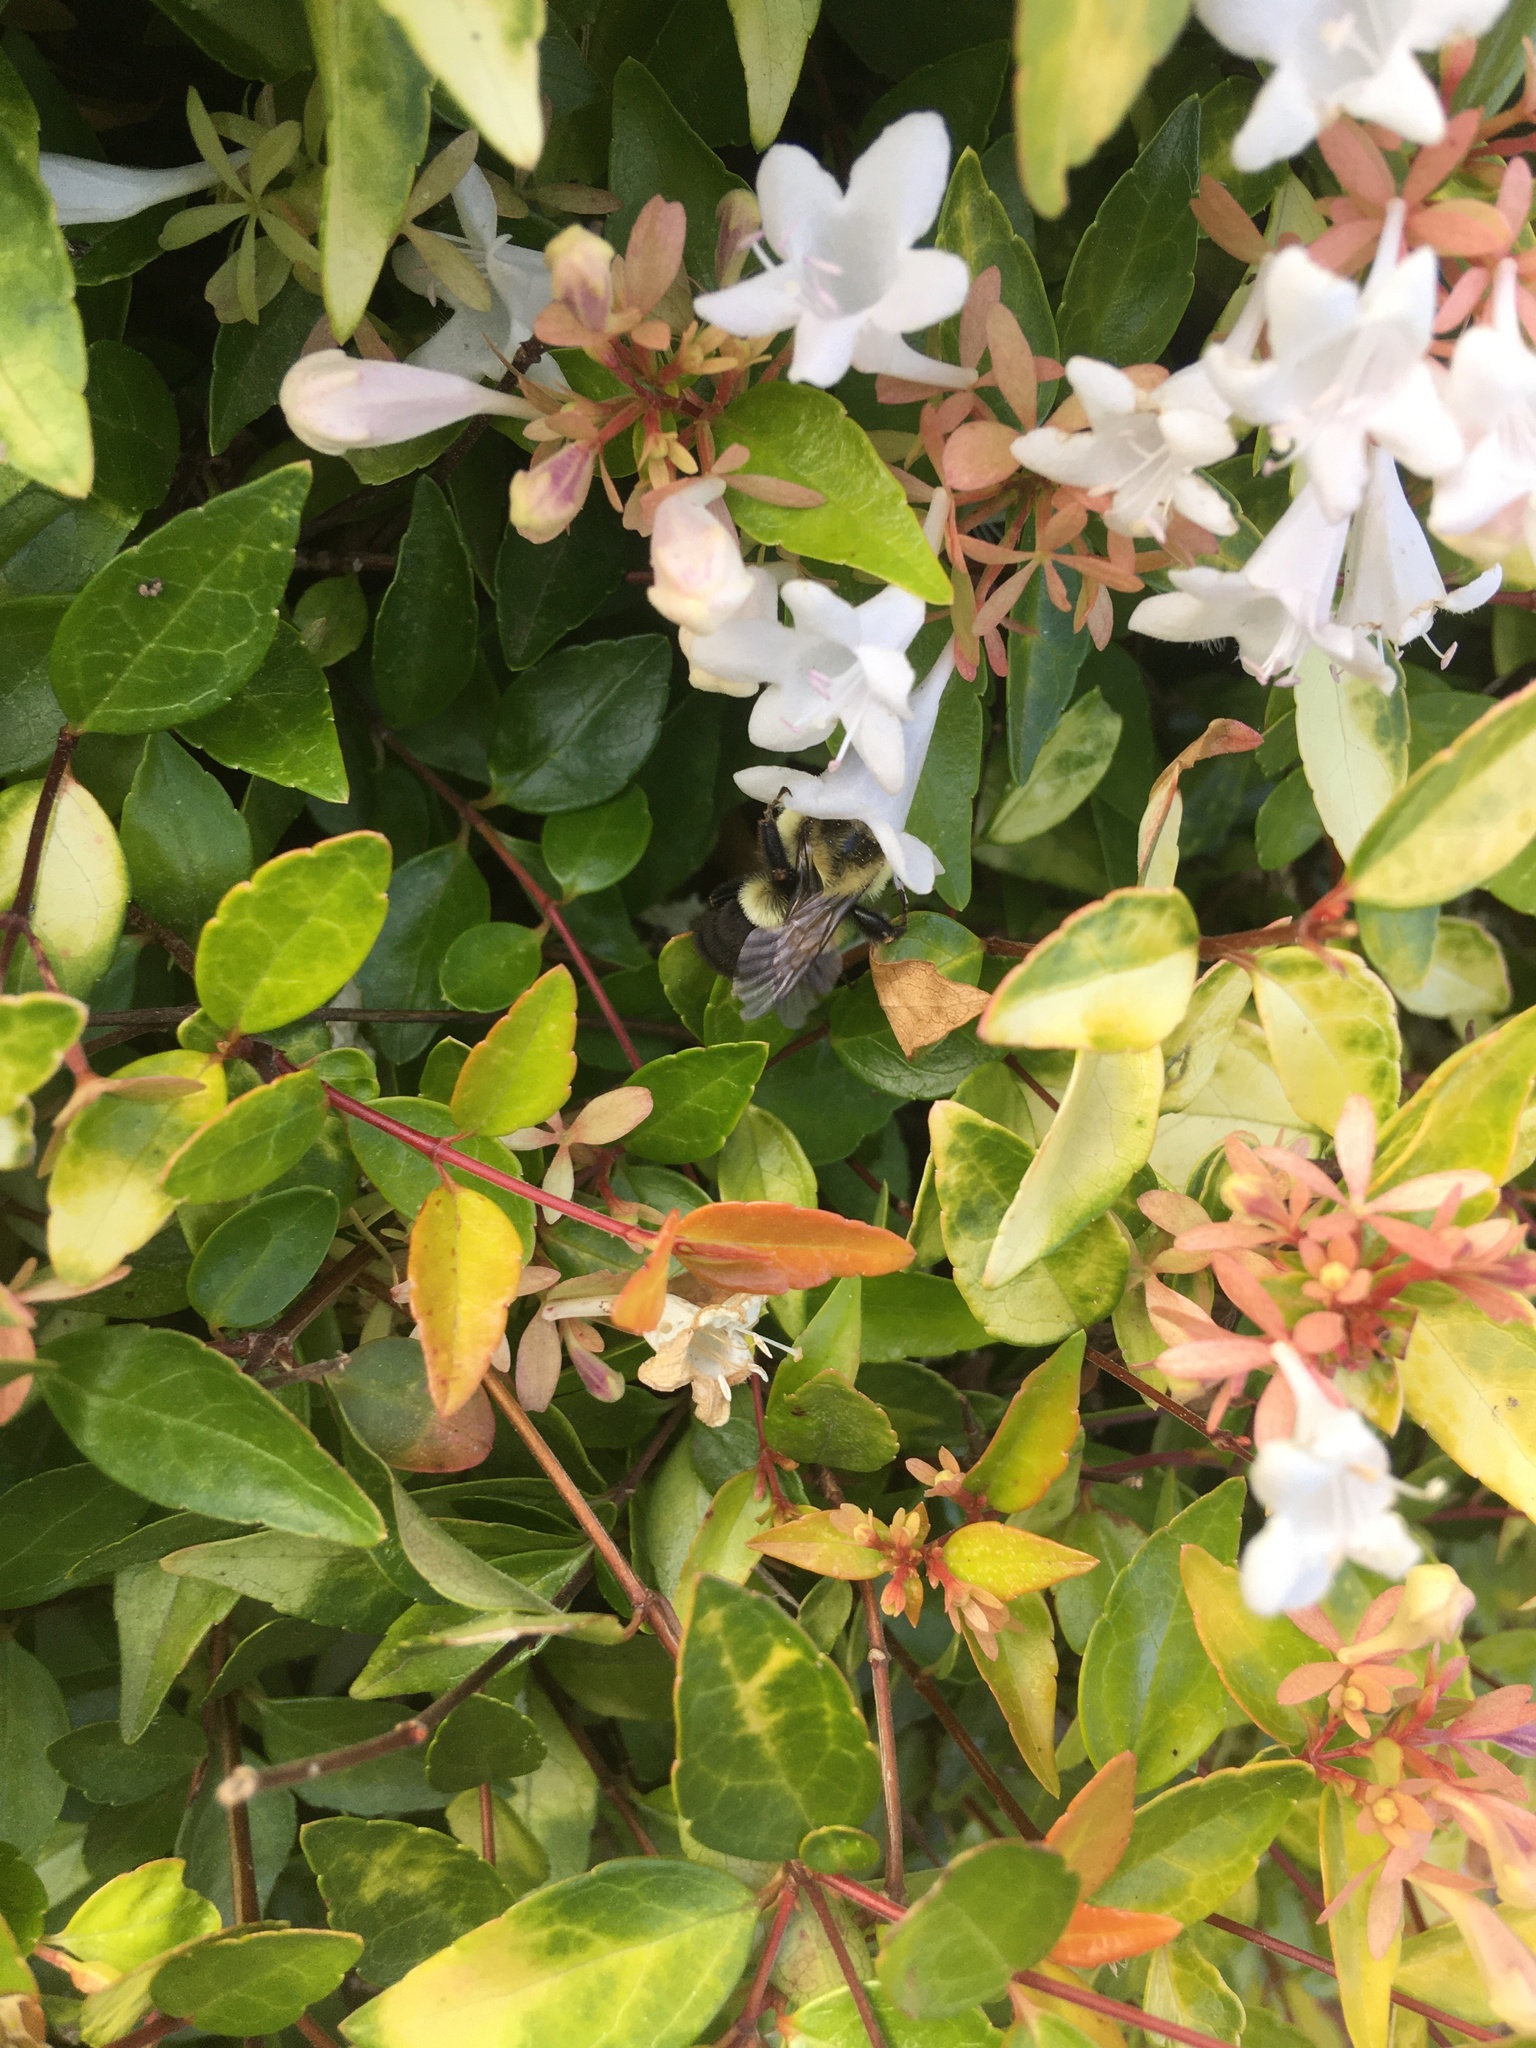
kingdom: Animalia
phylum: Arthropoda
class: Insecta
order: Hymenoptera
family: Apidae
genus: Bombus
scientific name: Bombus impatiens
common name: Common eastern bumble bee
